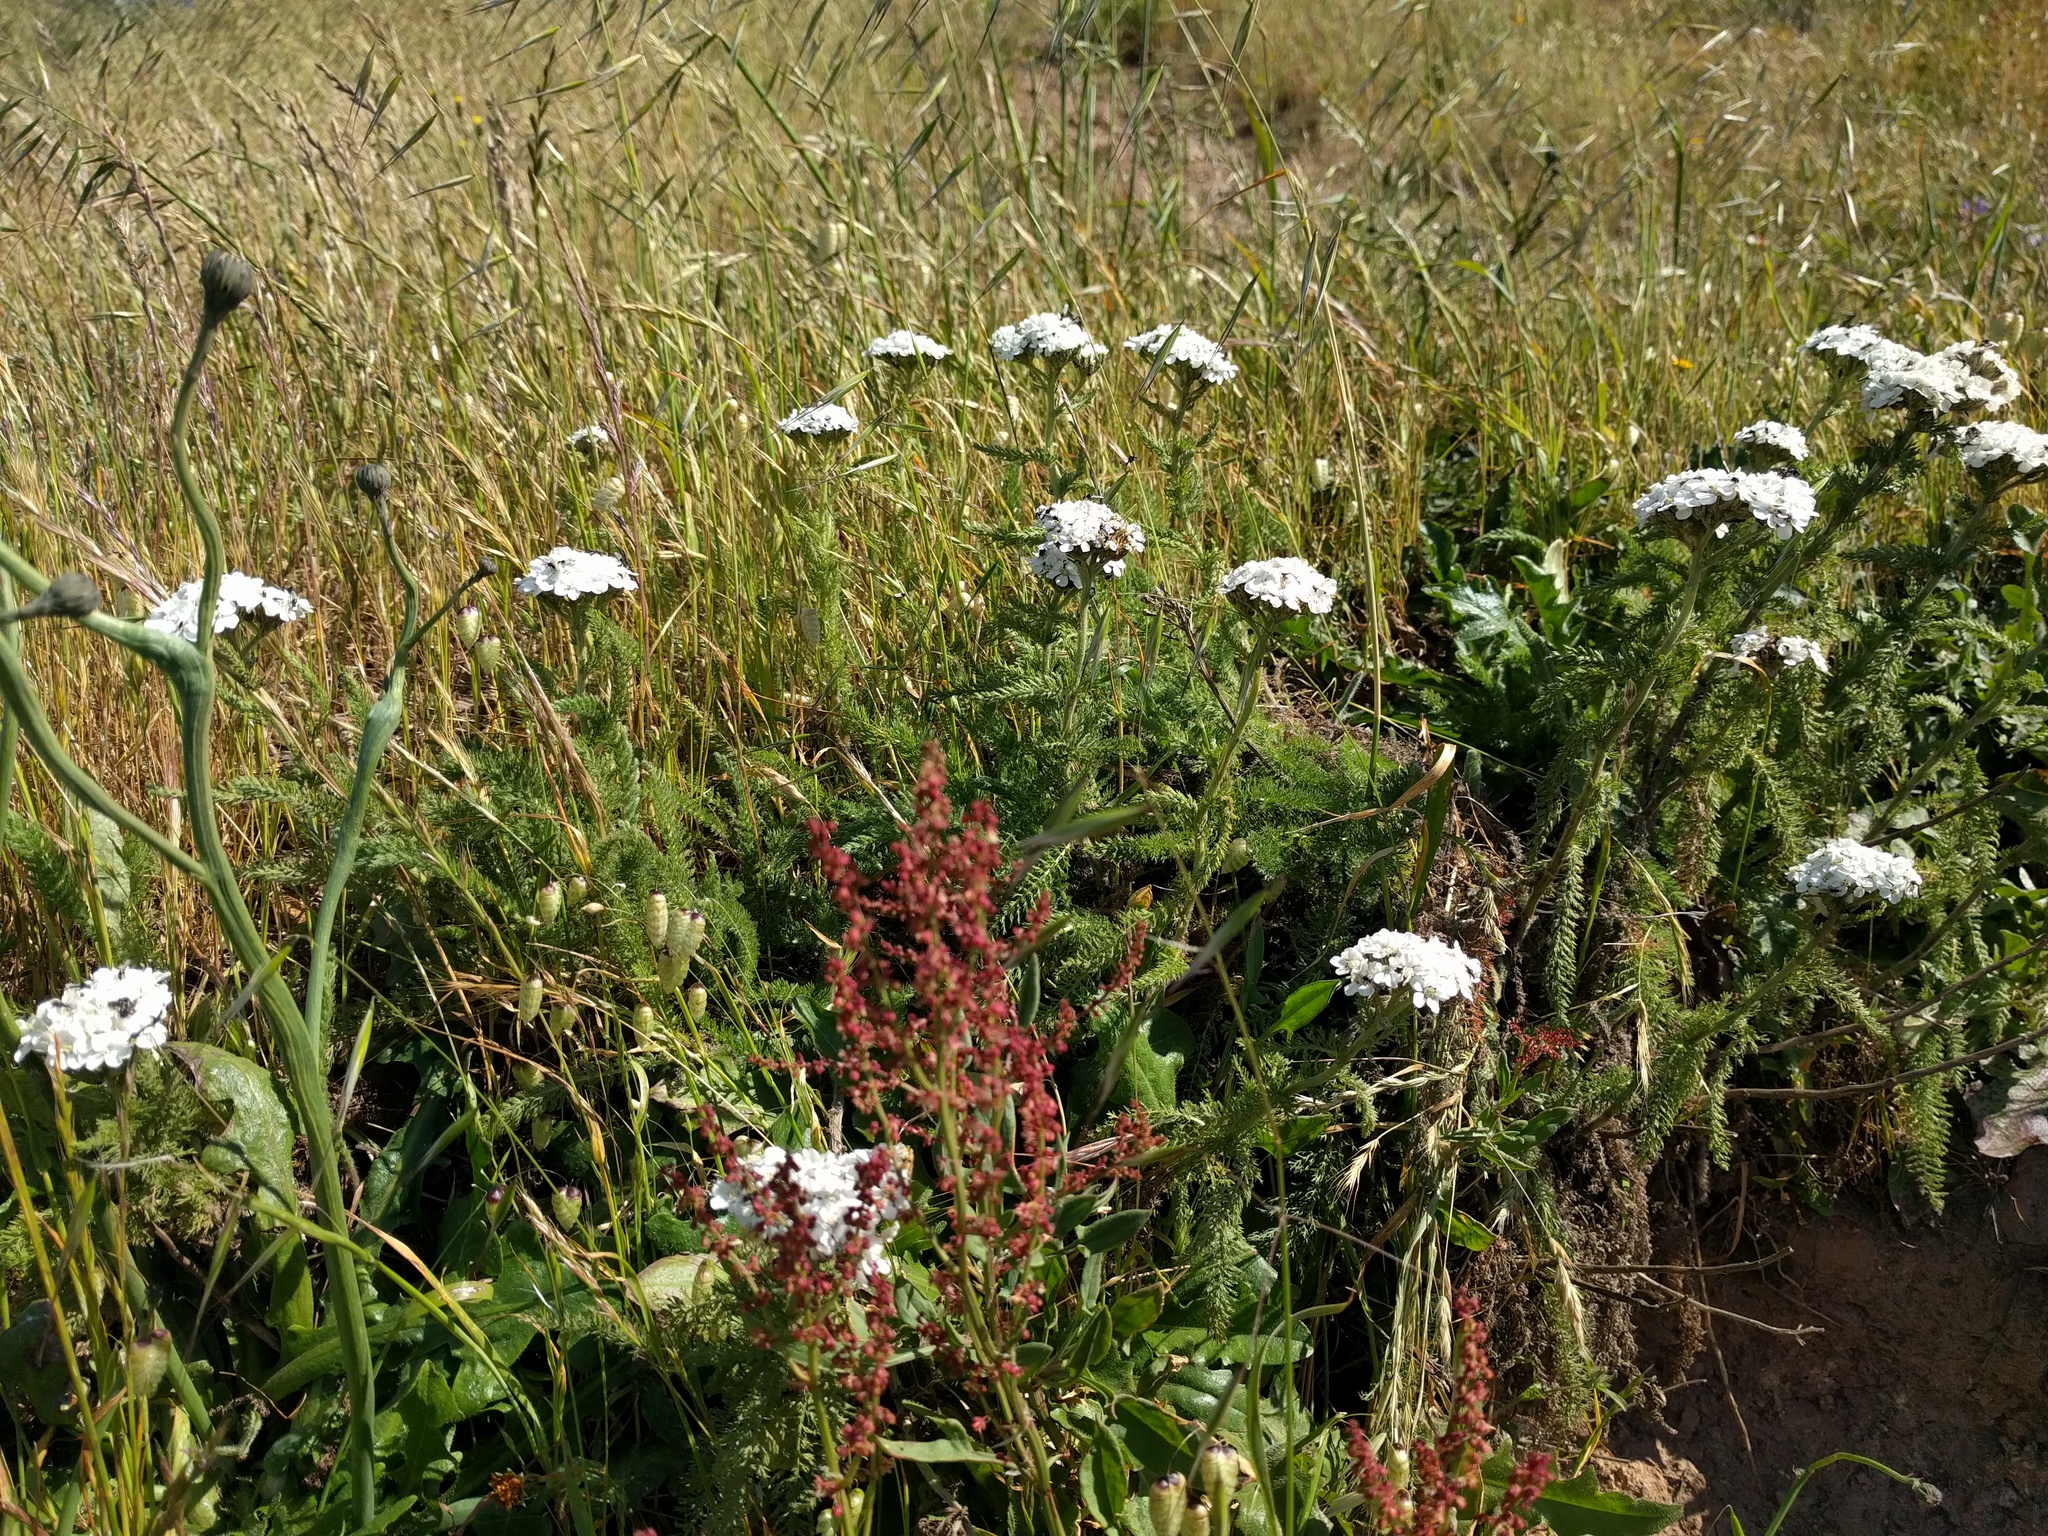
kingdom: Plantae
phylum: Tracheophyta
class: Magnoliopsida
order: Asterales
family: Asteraceae
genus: Achillea
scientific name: Achillea millefolium
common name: Yarrow
